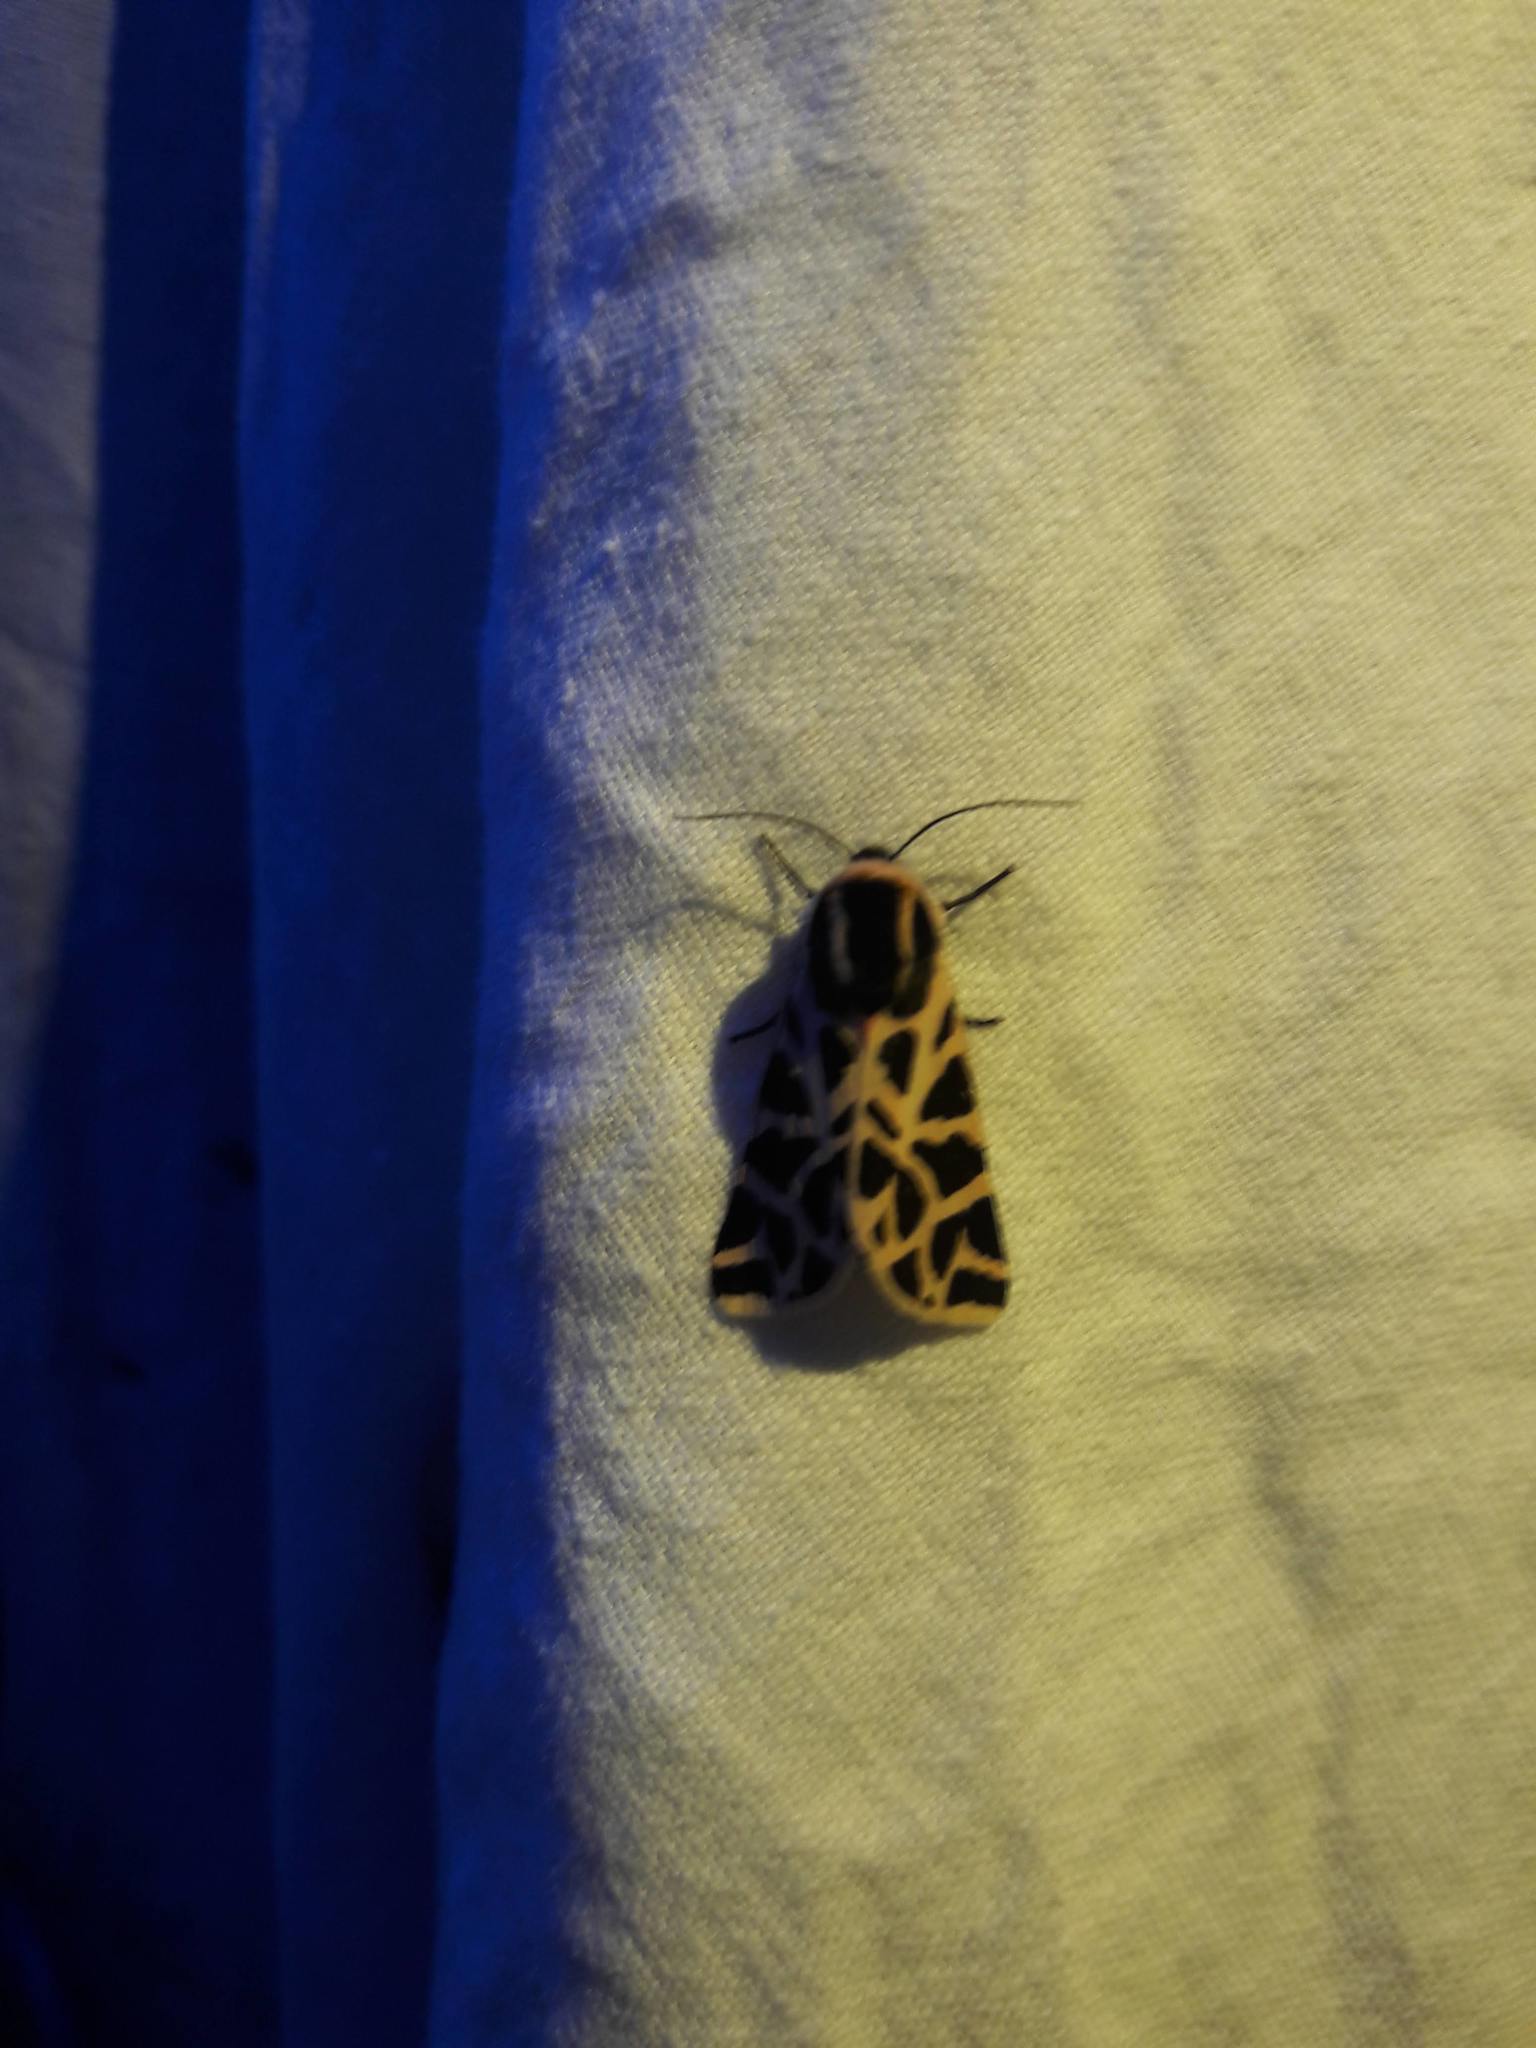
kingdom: Animalia
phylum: Arthropoda
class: Insecta
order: Lepidoptera
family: Erebidae
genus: Cymbalophora
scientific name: Cymbalophora pudica
